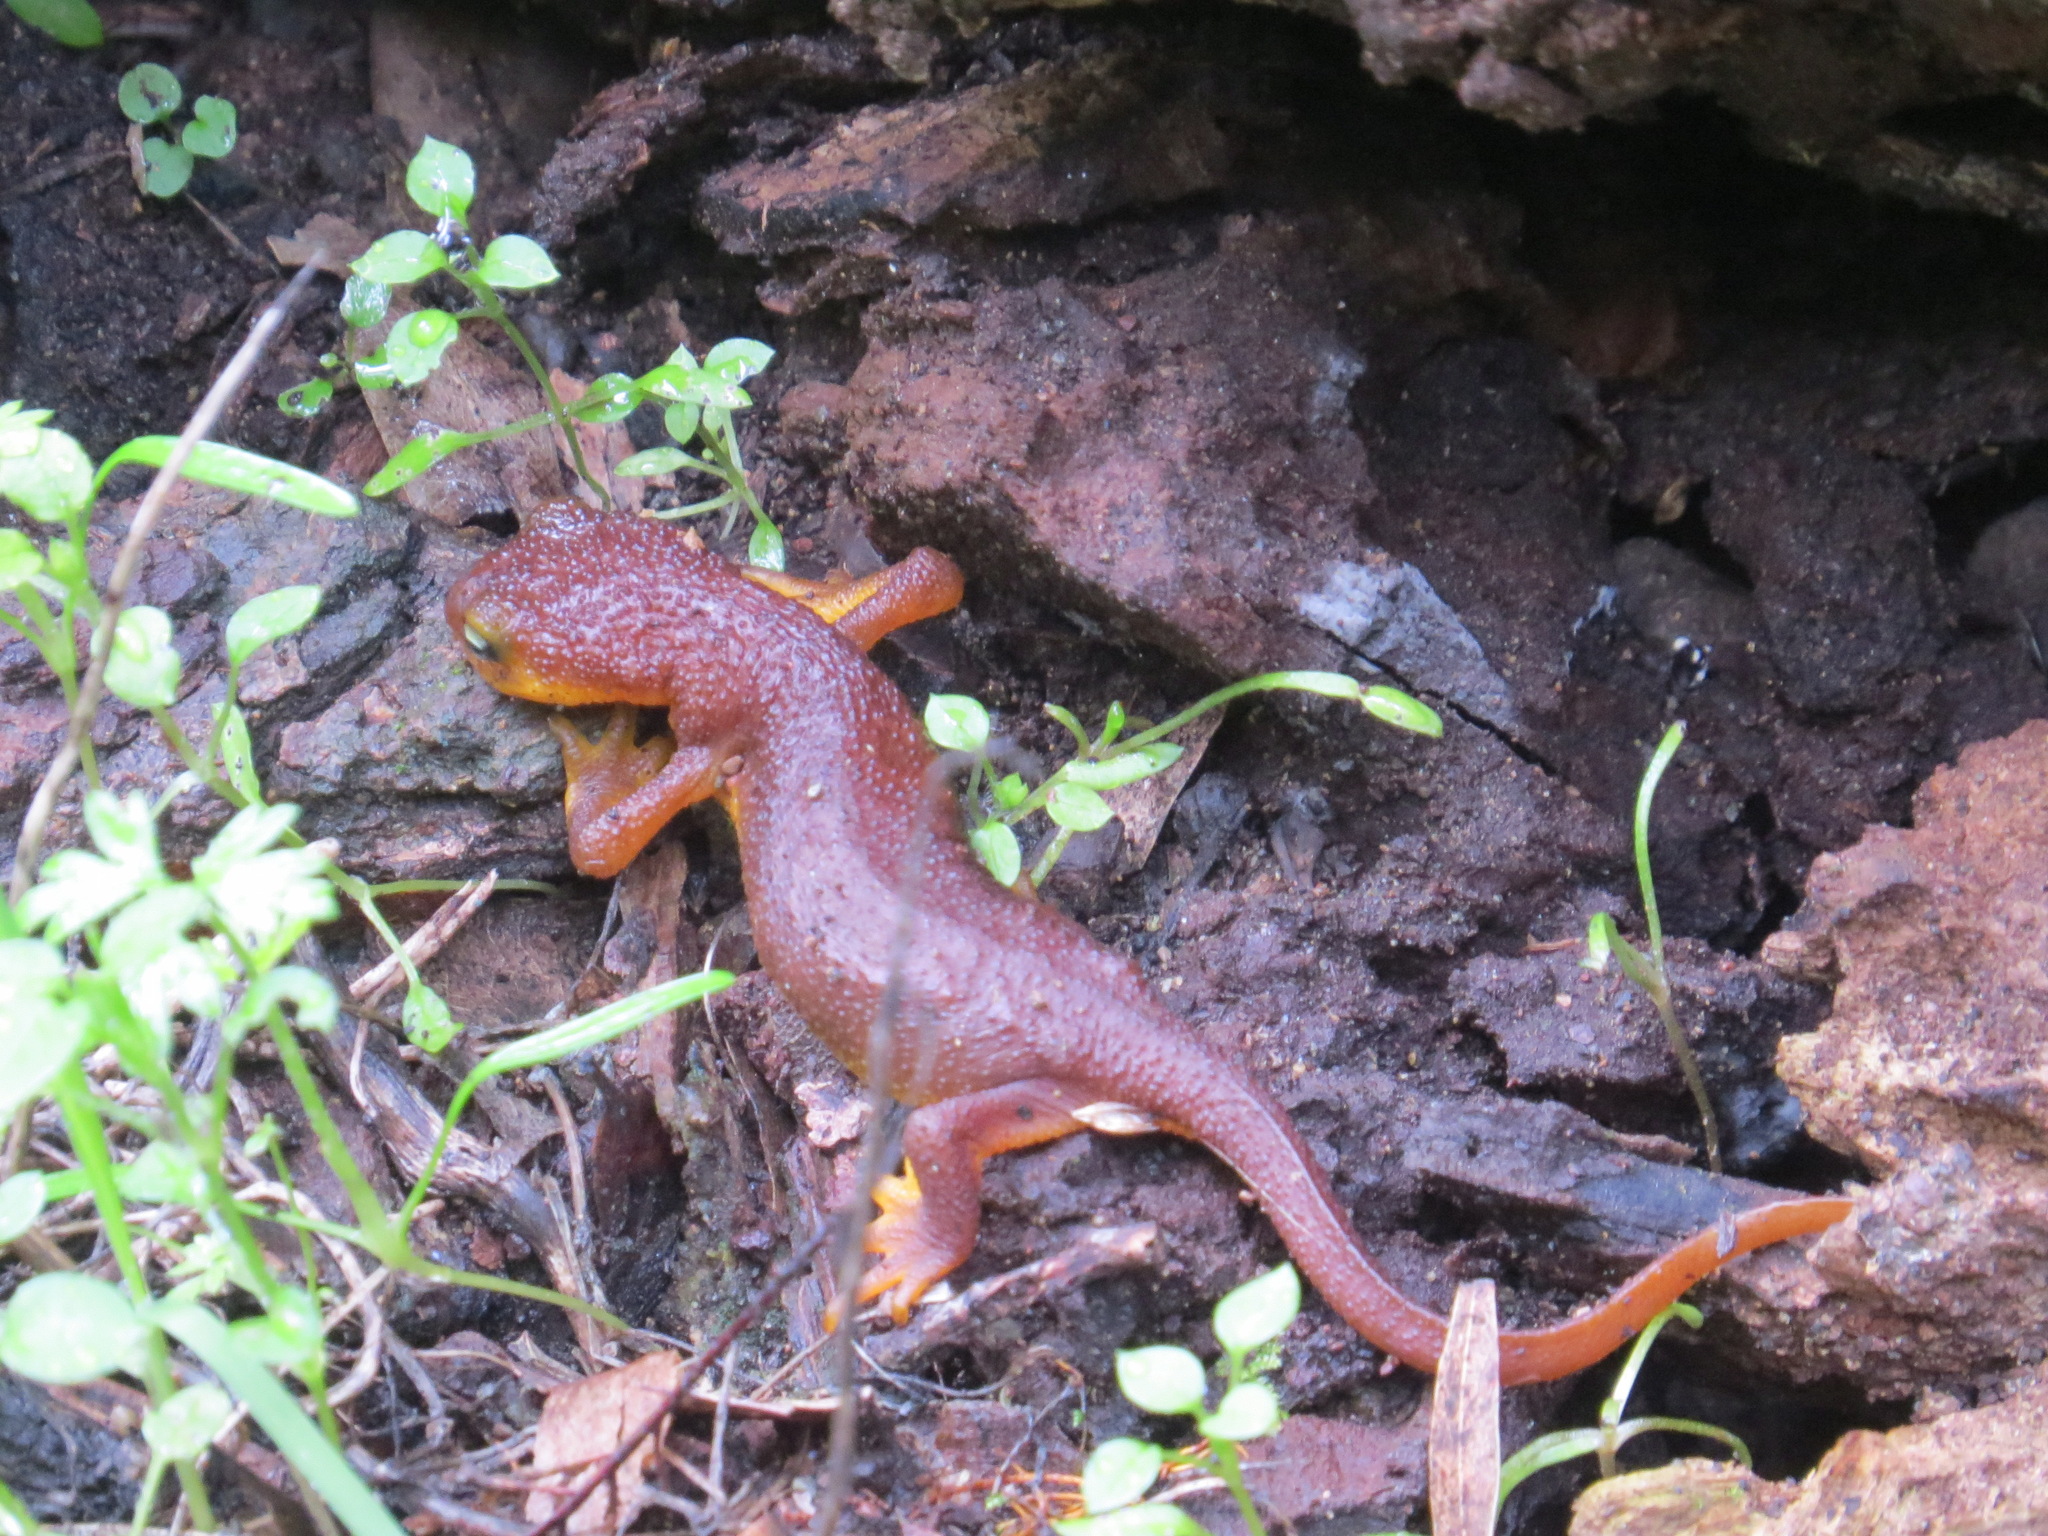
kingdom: Animalia
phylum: Chordata
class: Amphibia
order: Caudata
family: Salamandridae
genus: Taricha
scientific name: Taricha torosa
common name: California newt
